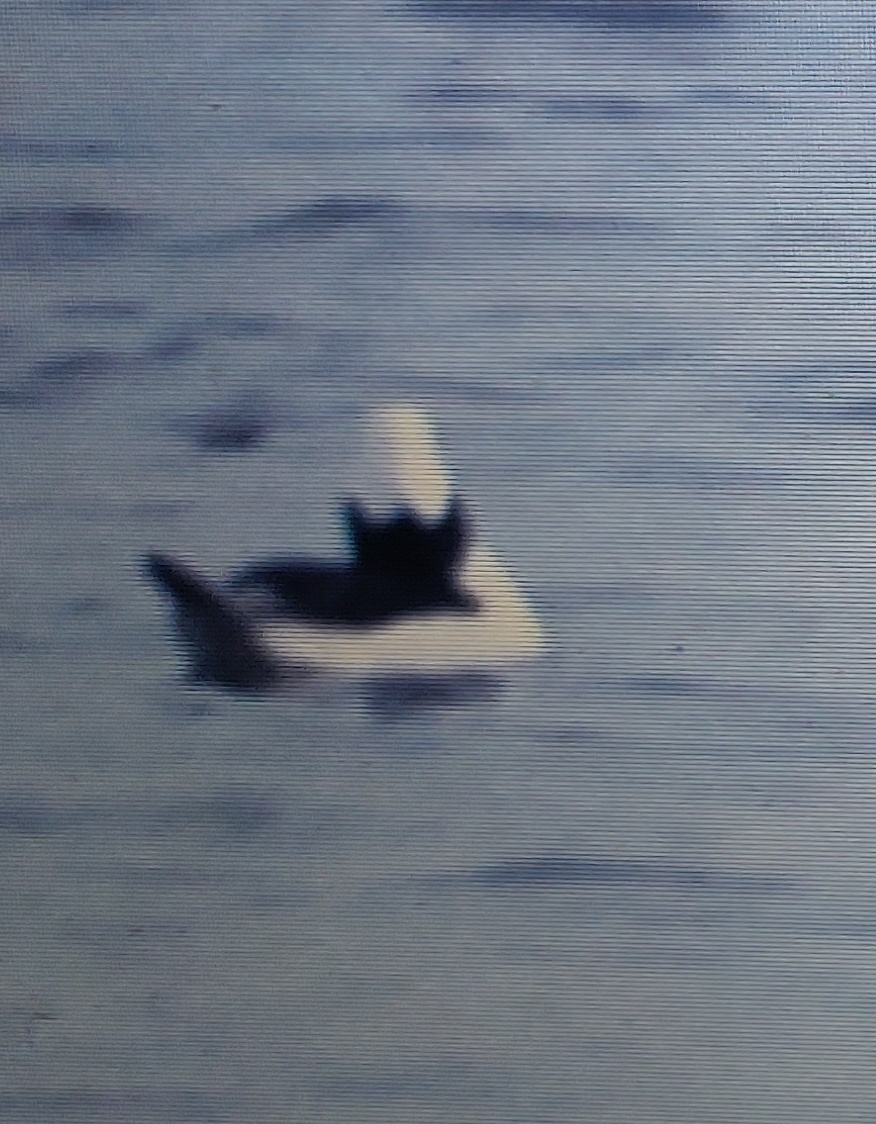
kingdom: Animalia
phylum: Chordata
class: Aves
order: Anseriformes
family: Anatidae
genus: Bucephala
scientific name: Bucephala albeola
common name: Bufflehead
